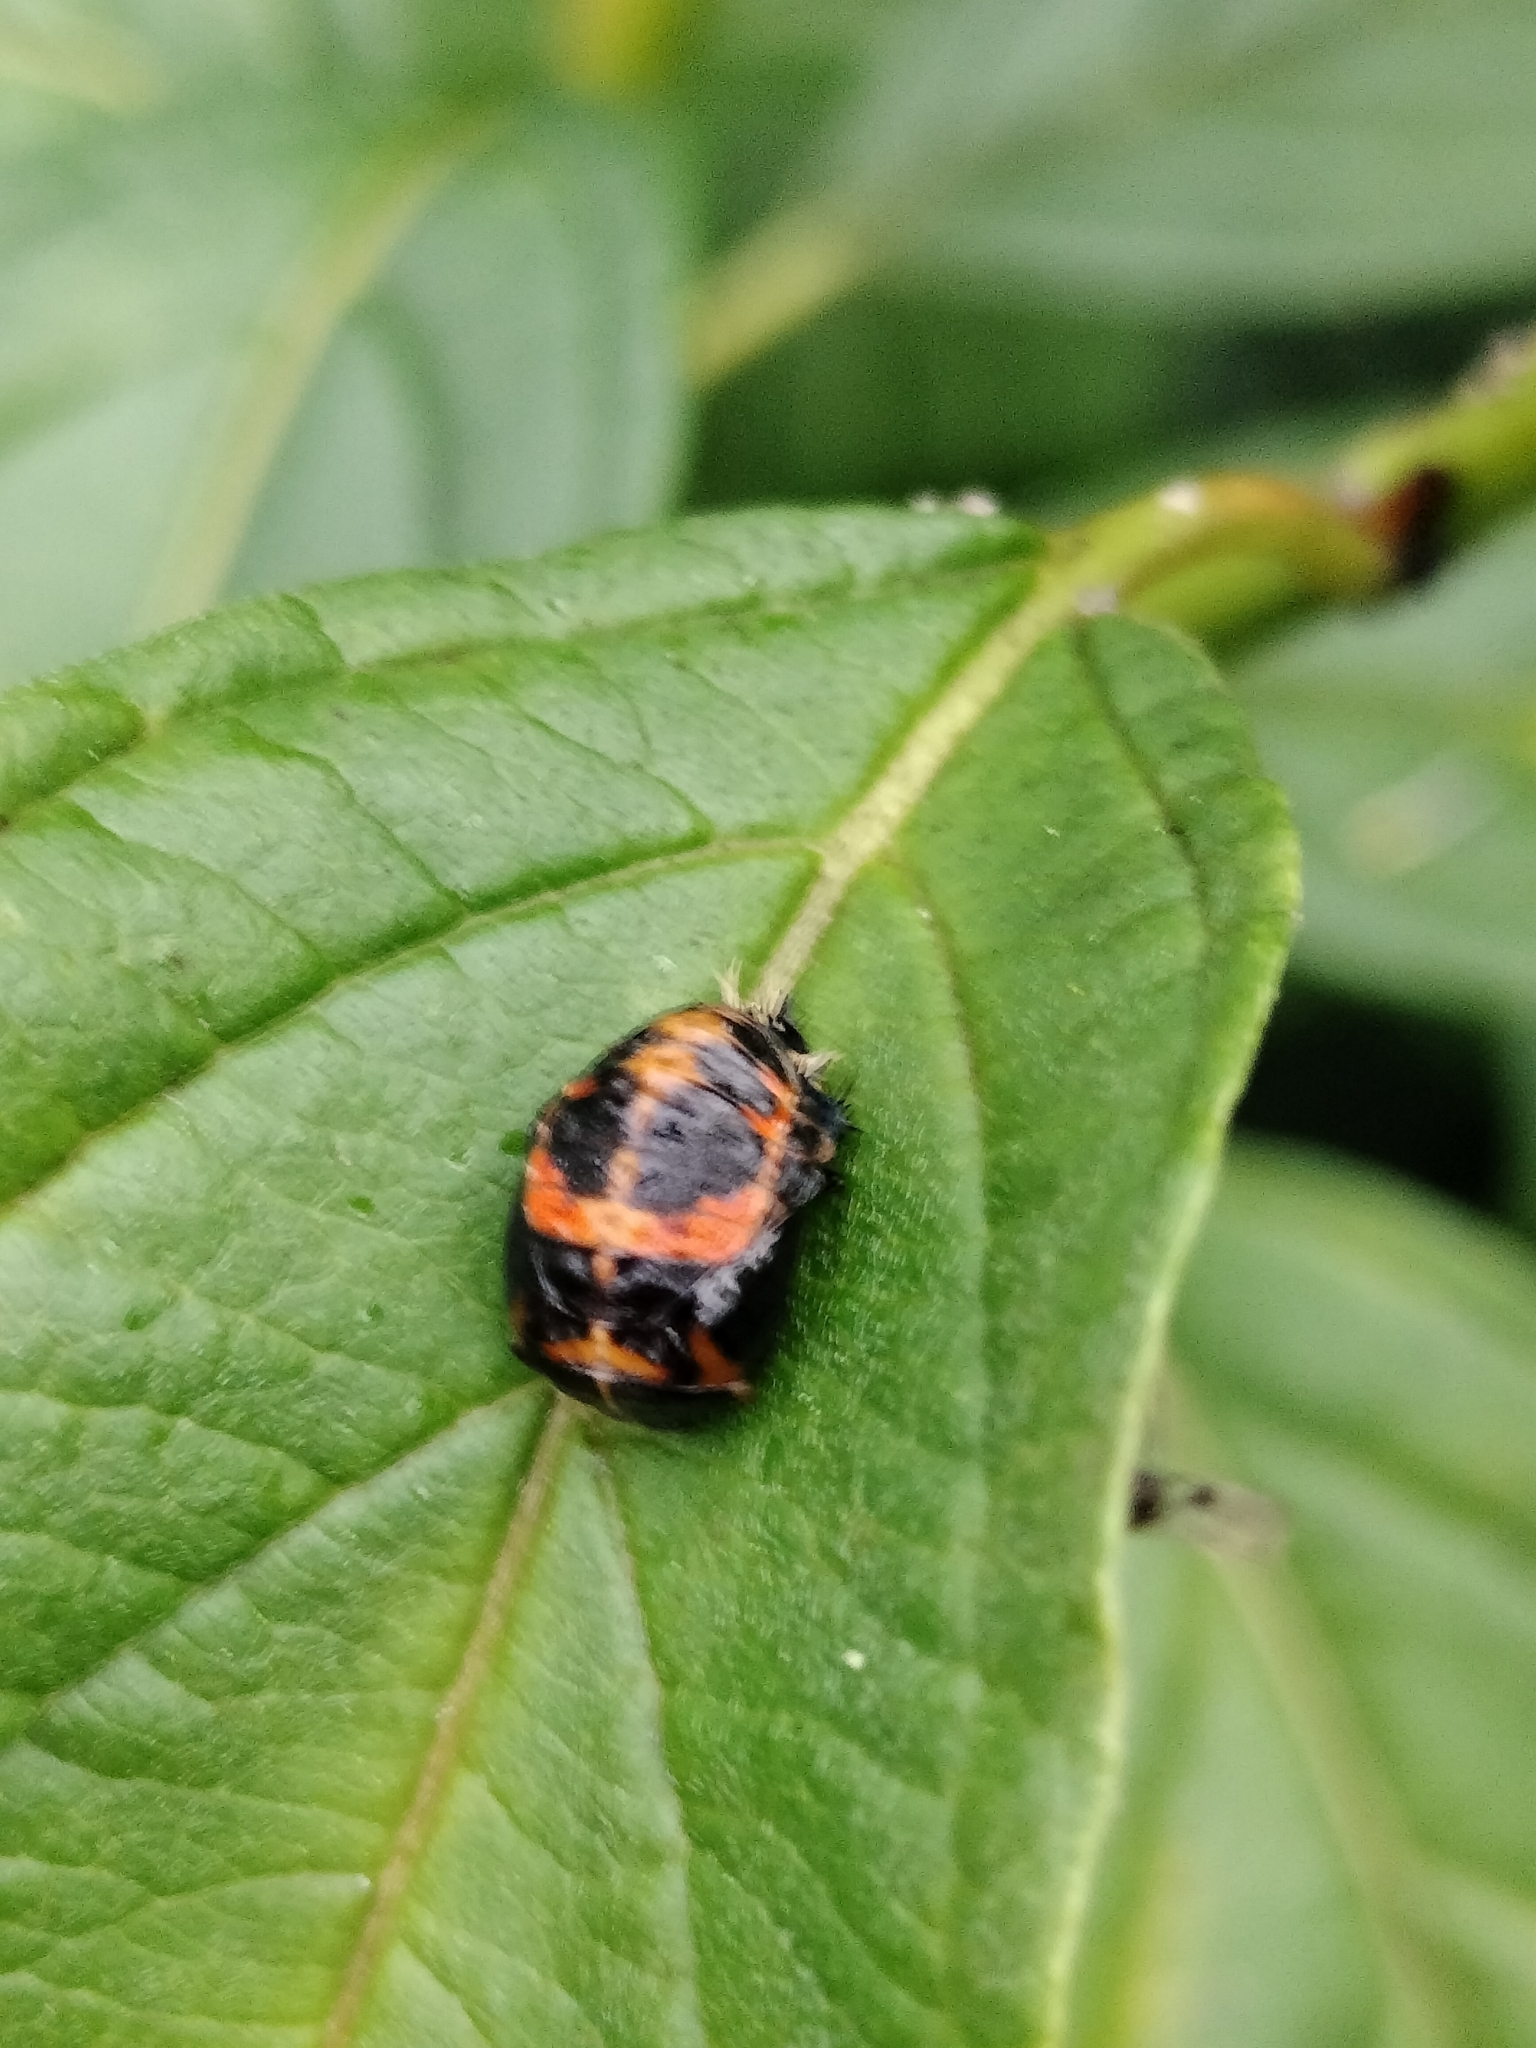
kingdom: Animalia
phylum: Arthropoda
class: Insecta
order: Coleoptera
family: Coccinellidae
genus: Harmonia
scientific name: Harmonia axyridis
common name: Harlequin ladybird
